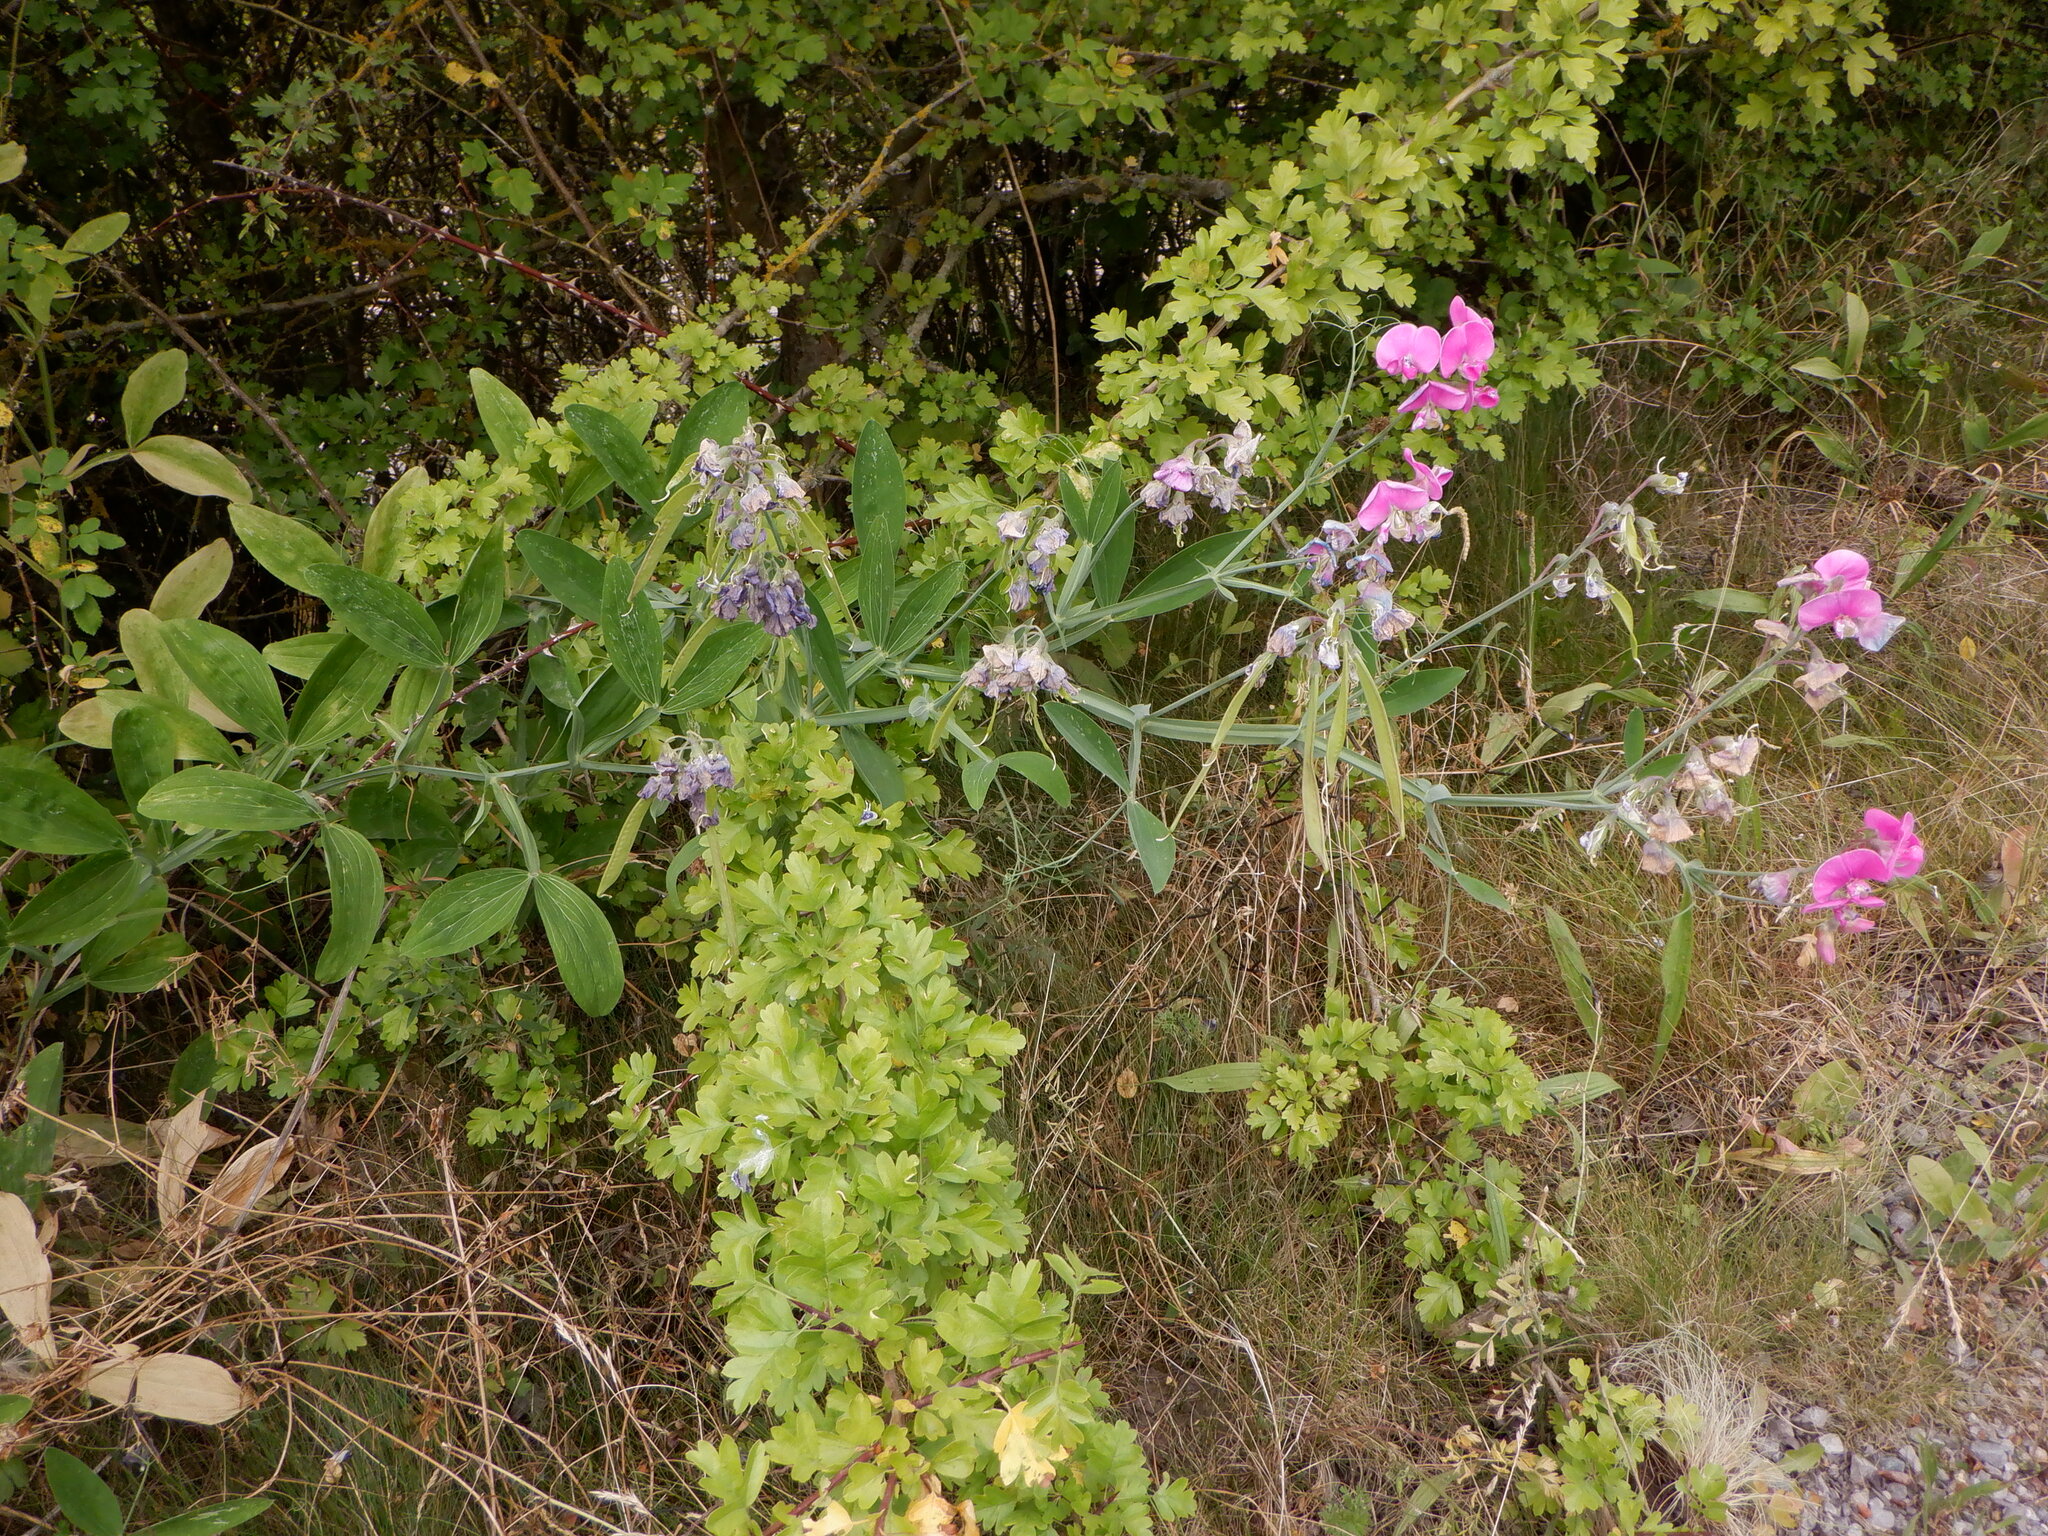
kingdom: Plantae
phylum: Tracheophyta
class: Magnoliopsida
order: Fabales
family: Fabaceae
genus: Lathyrus
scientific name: Lathyrus latifolius
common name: Perennial pea
